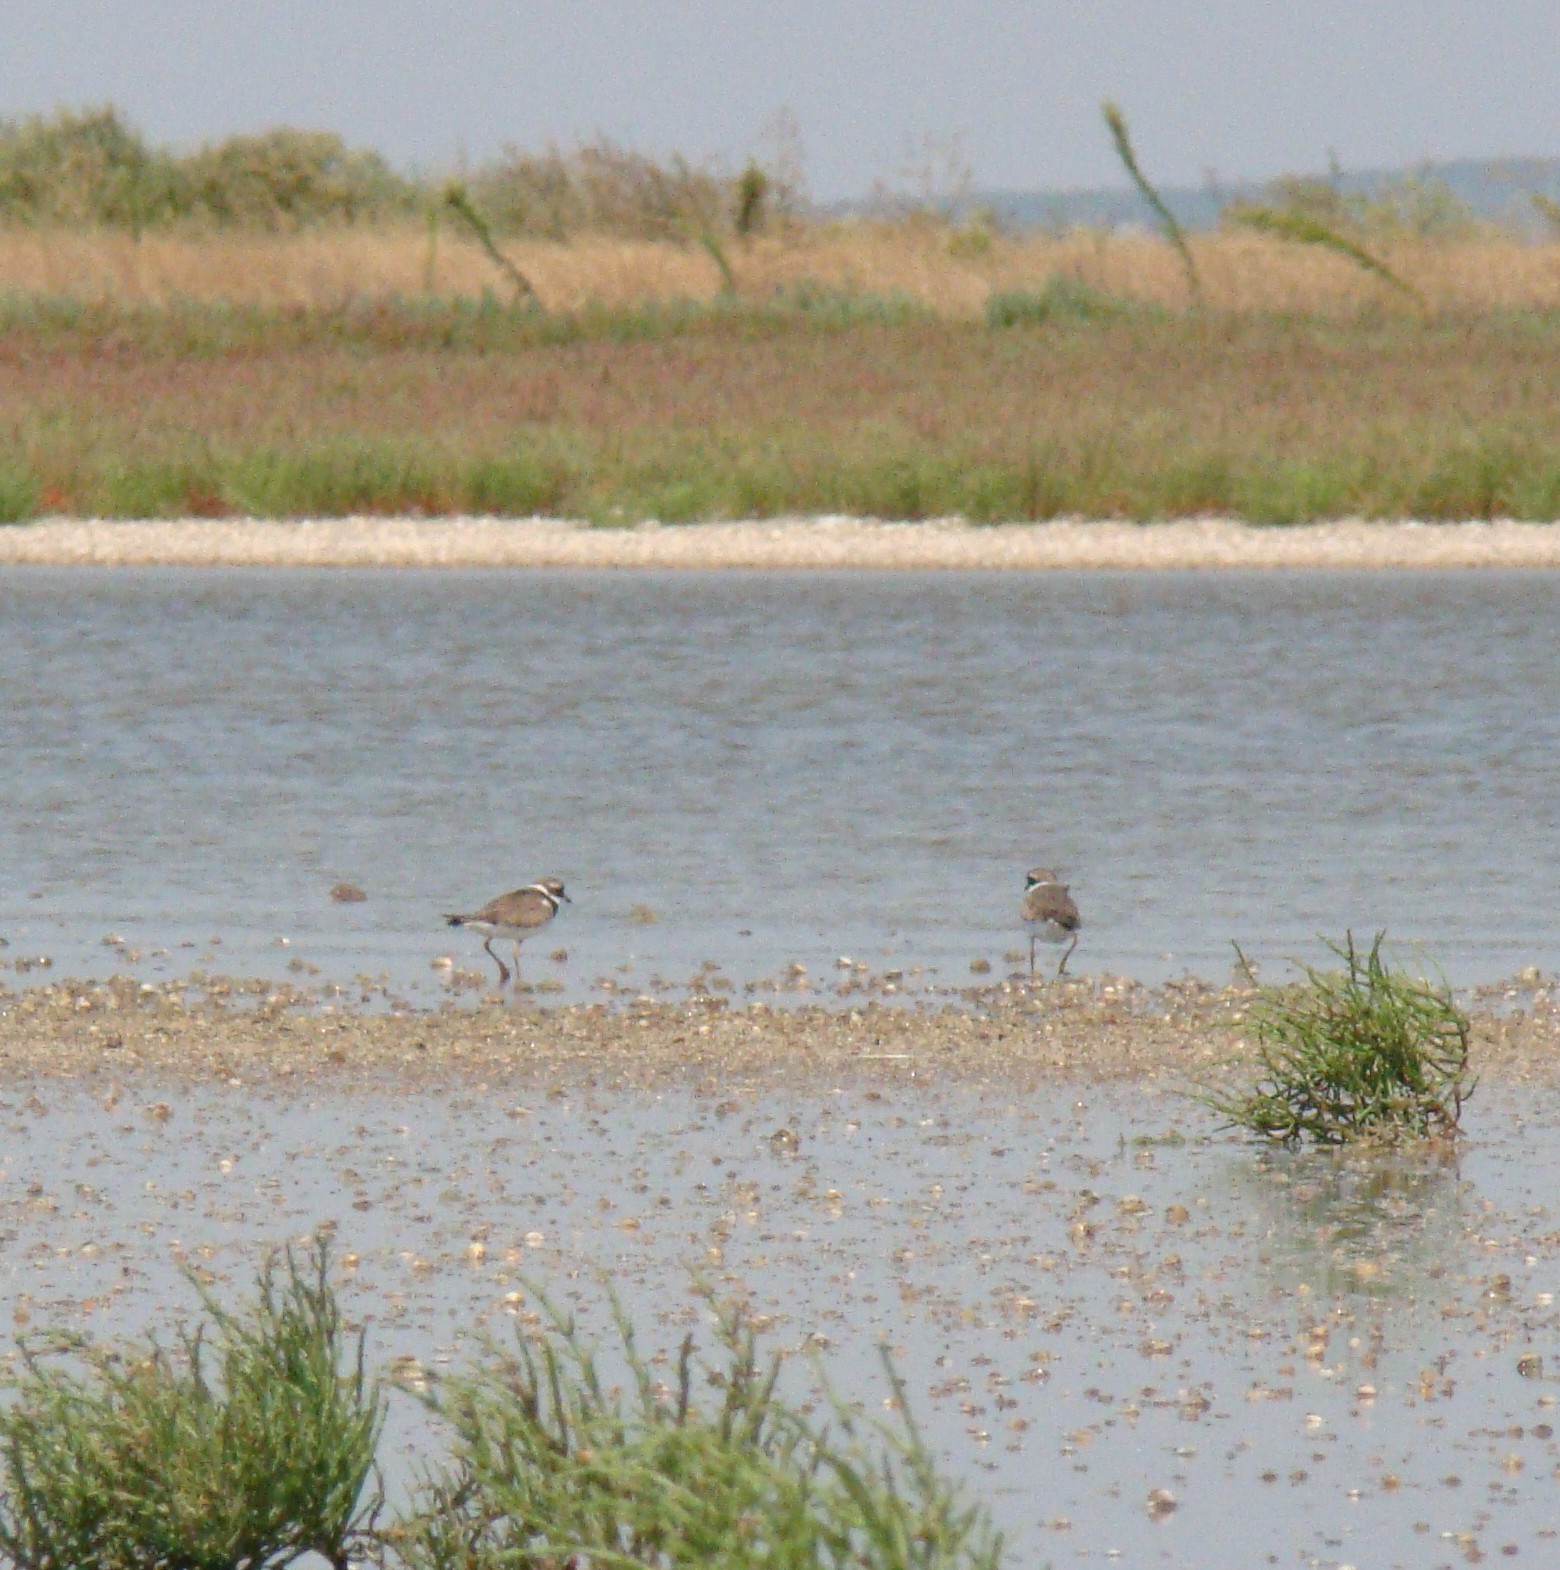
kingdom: Animalia
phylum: Chordata
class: Aves
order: Charadriiformes
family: Charadriidae
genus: Charadrius
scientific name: Charadrius hiaticula
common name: Common ringed plover
